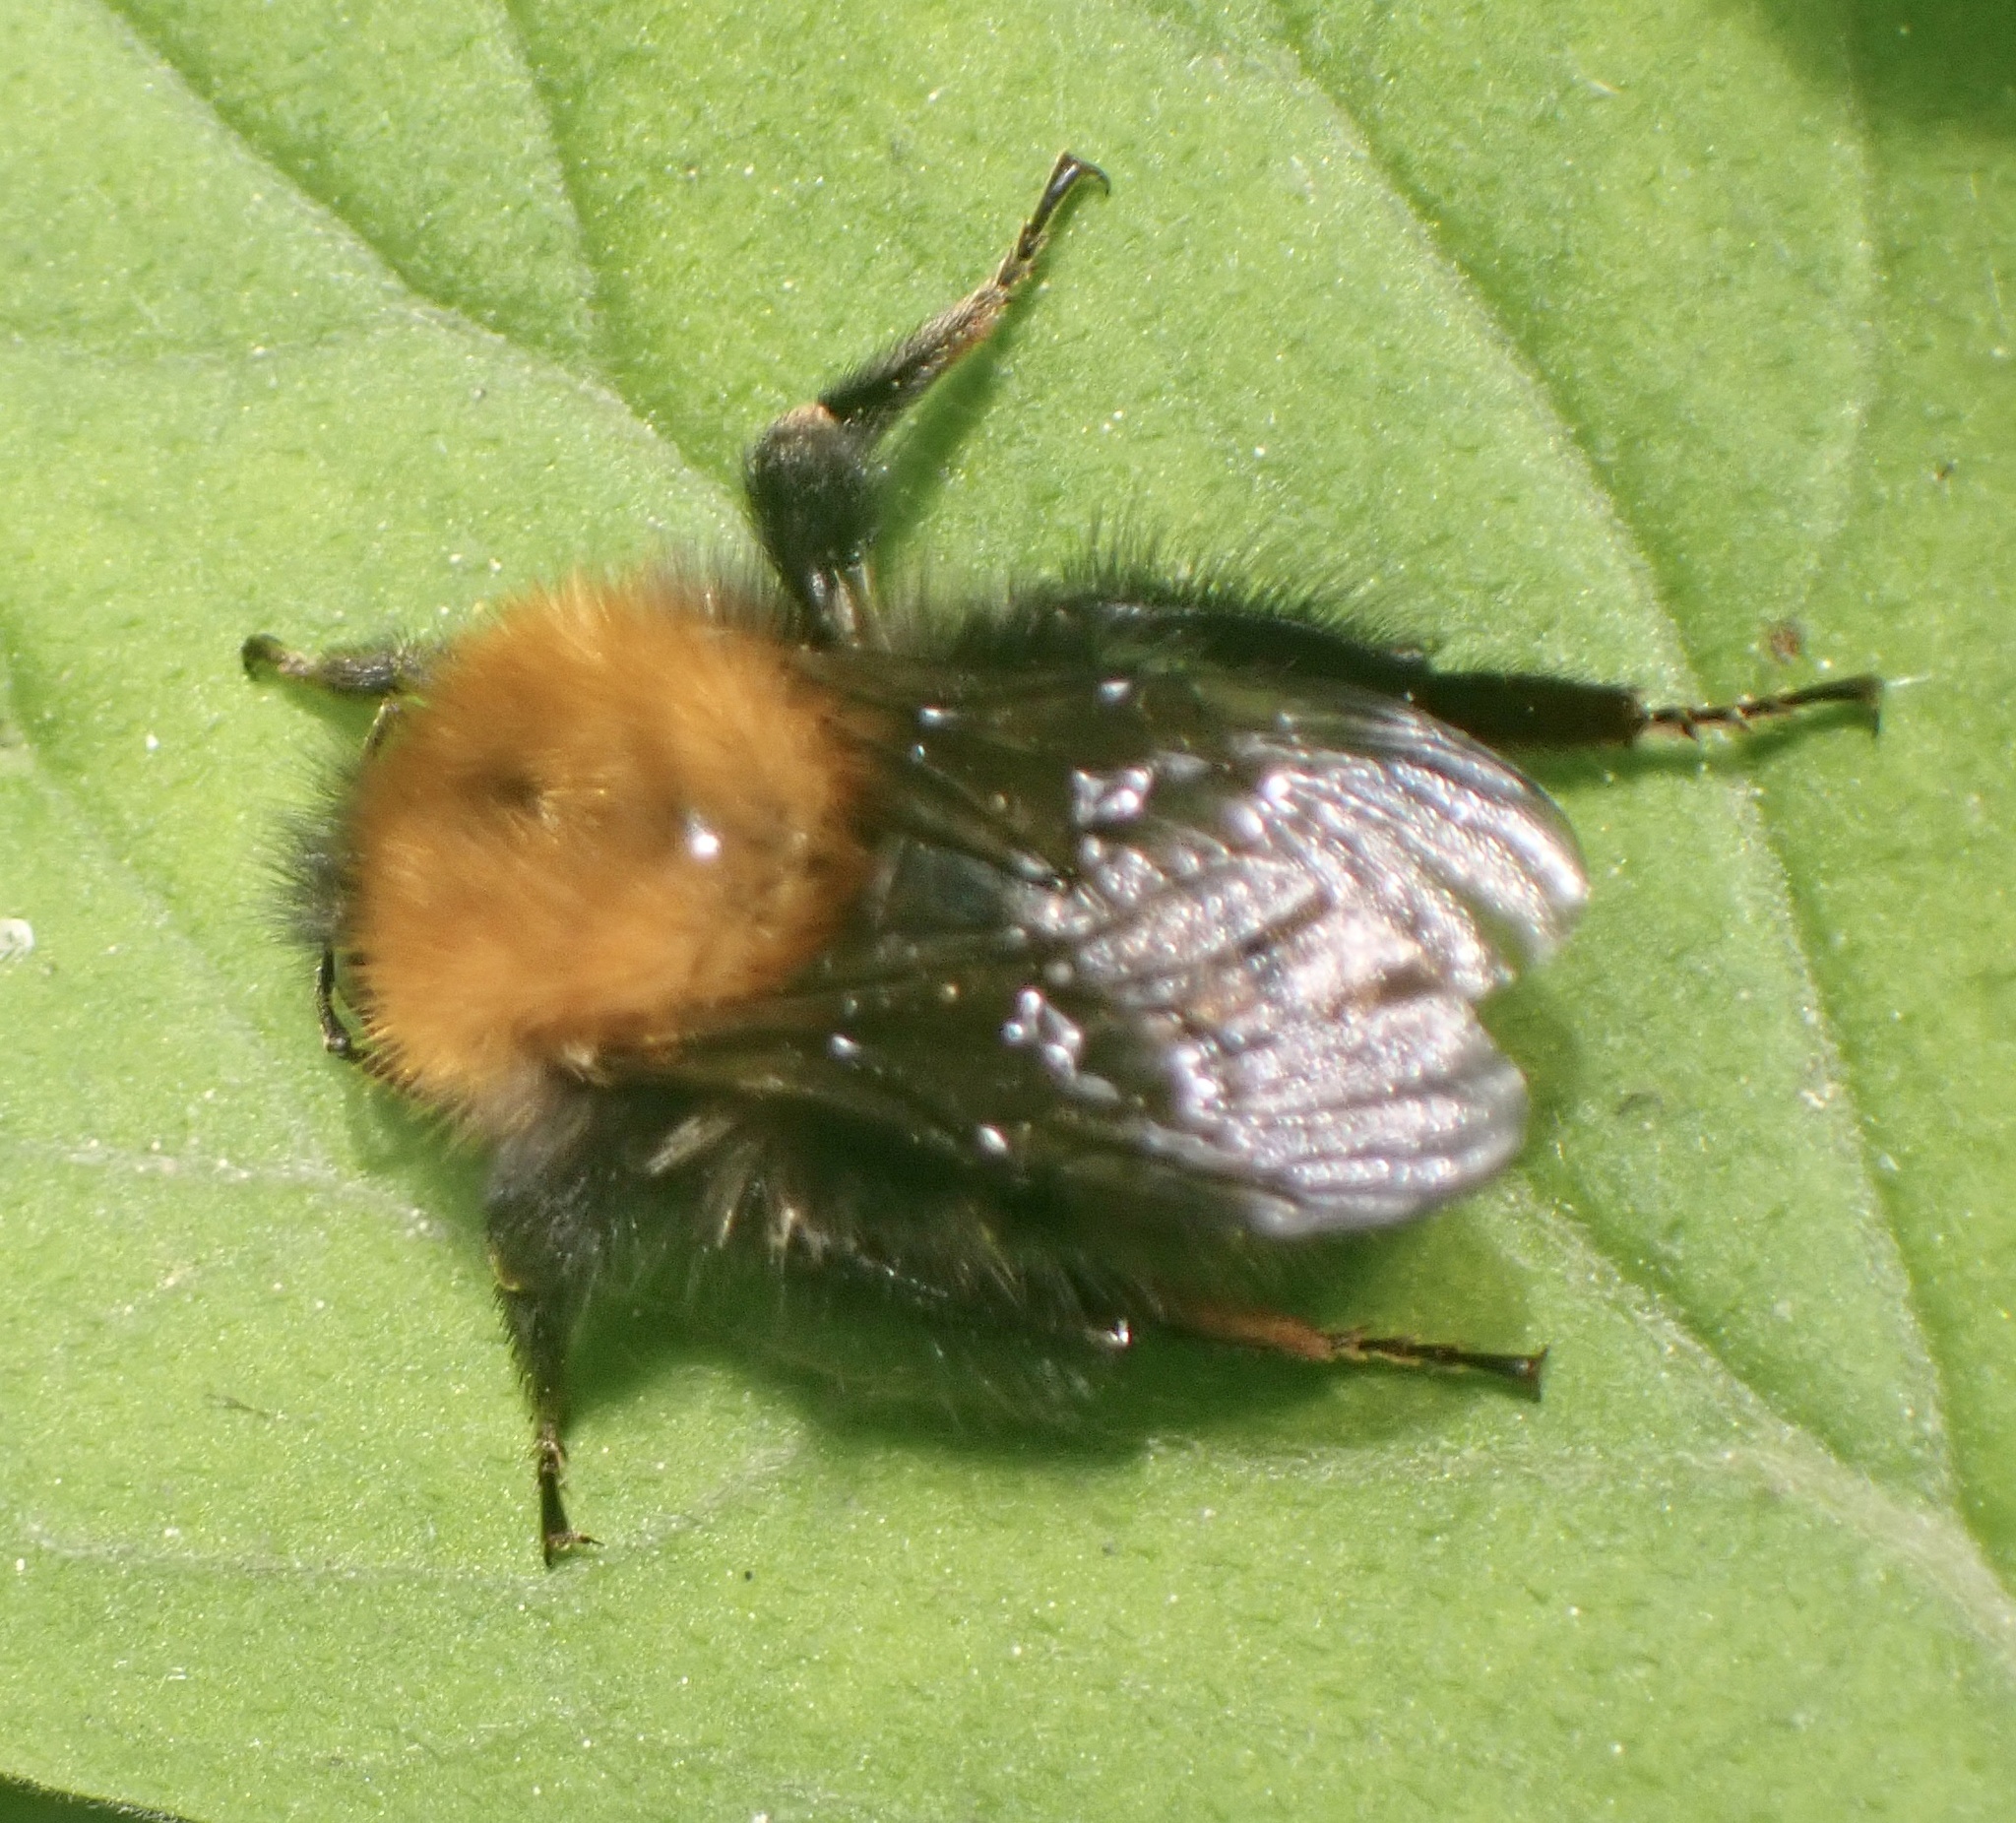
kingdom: Animalia
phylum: Arthropoda
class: Insecta
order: Hymenoptera
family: Apidae
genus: Bombus
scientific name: Bombus pascuorum
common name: Common carder bee
